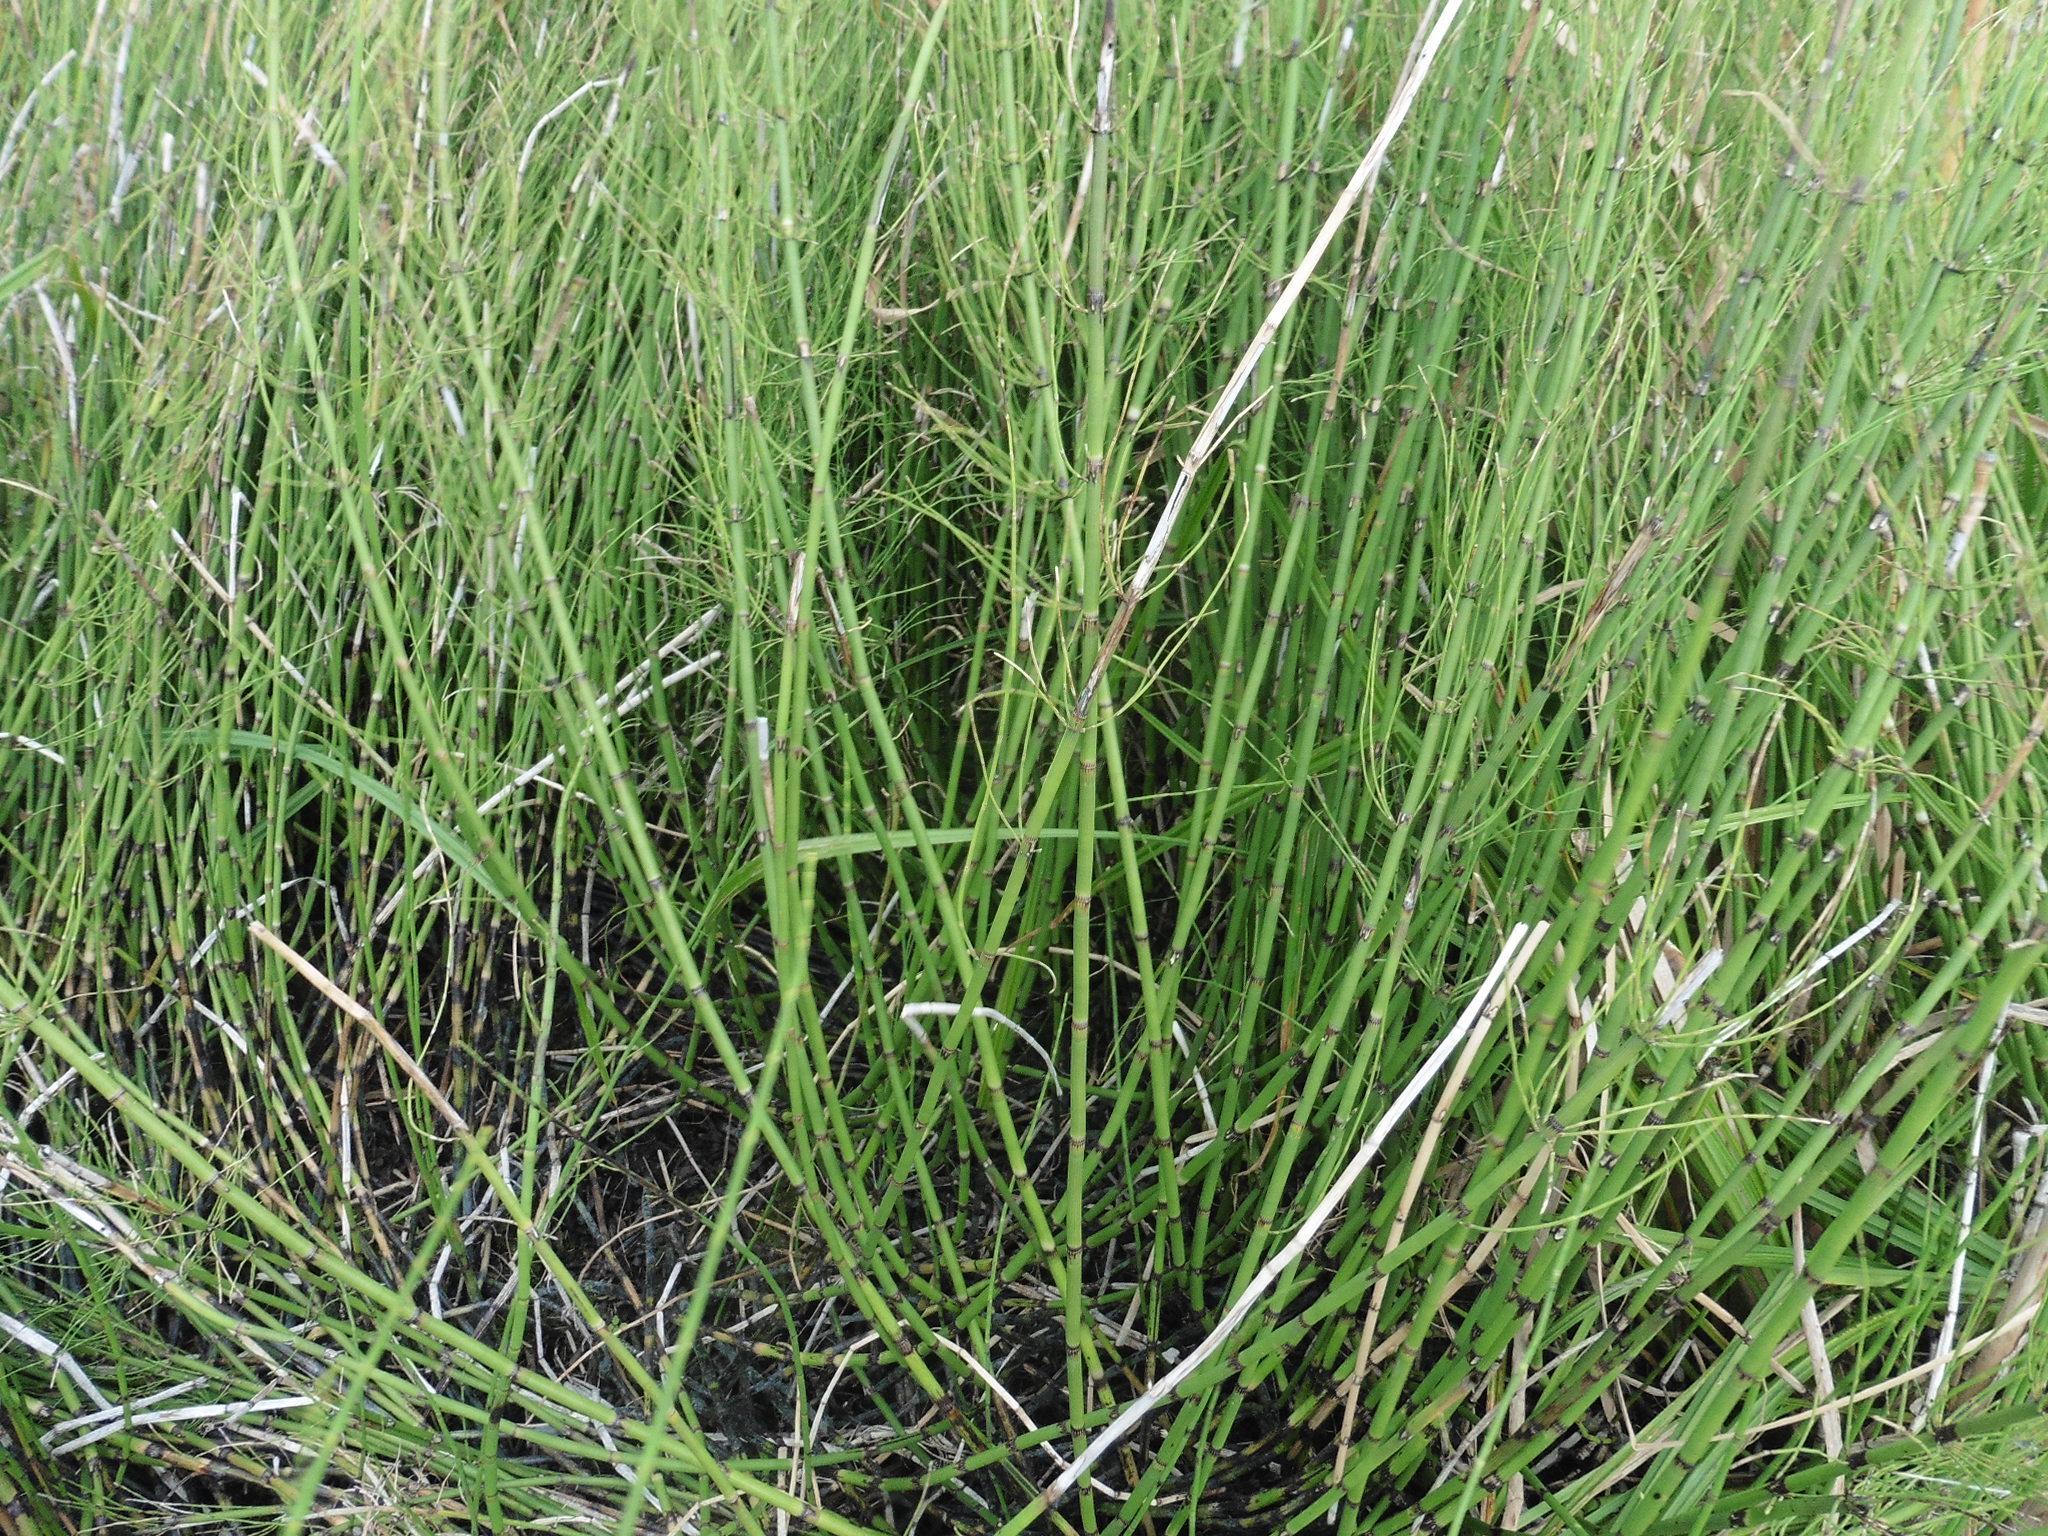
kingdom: Plantae
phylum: Tracheophyta
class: Polypodiopsida
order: Equisetales
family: Equisetaceae
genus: Equisetum
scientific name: Equisetum fluviatile
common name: Water horsetail
